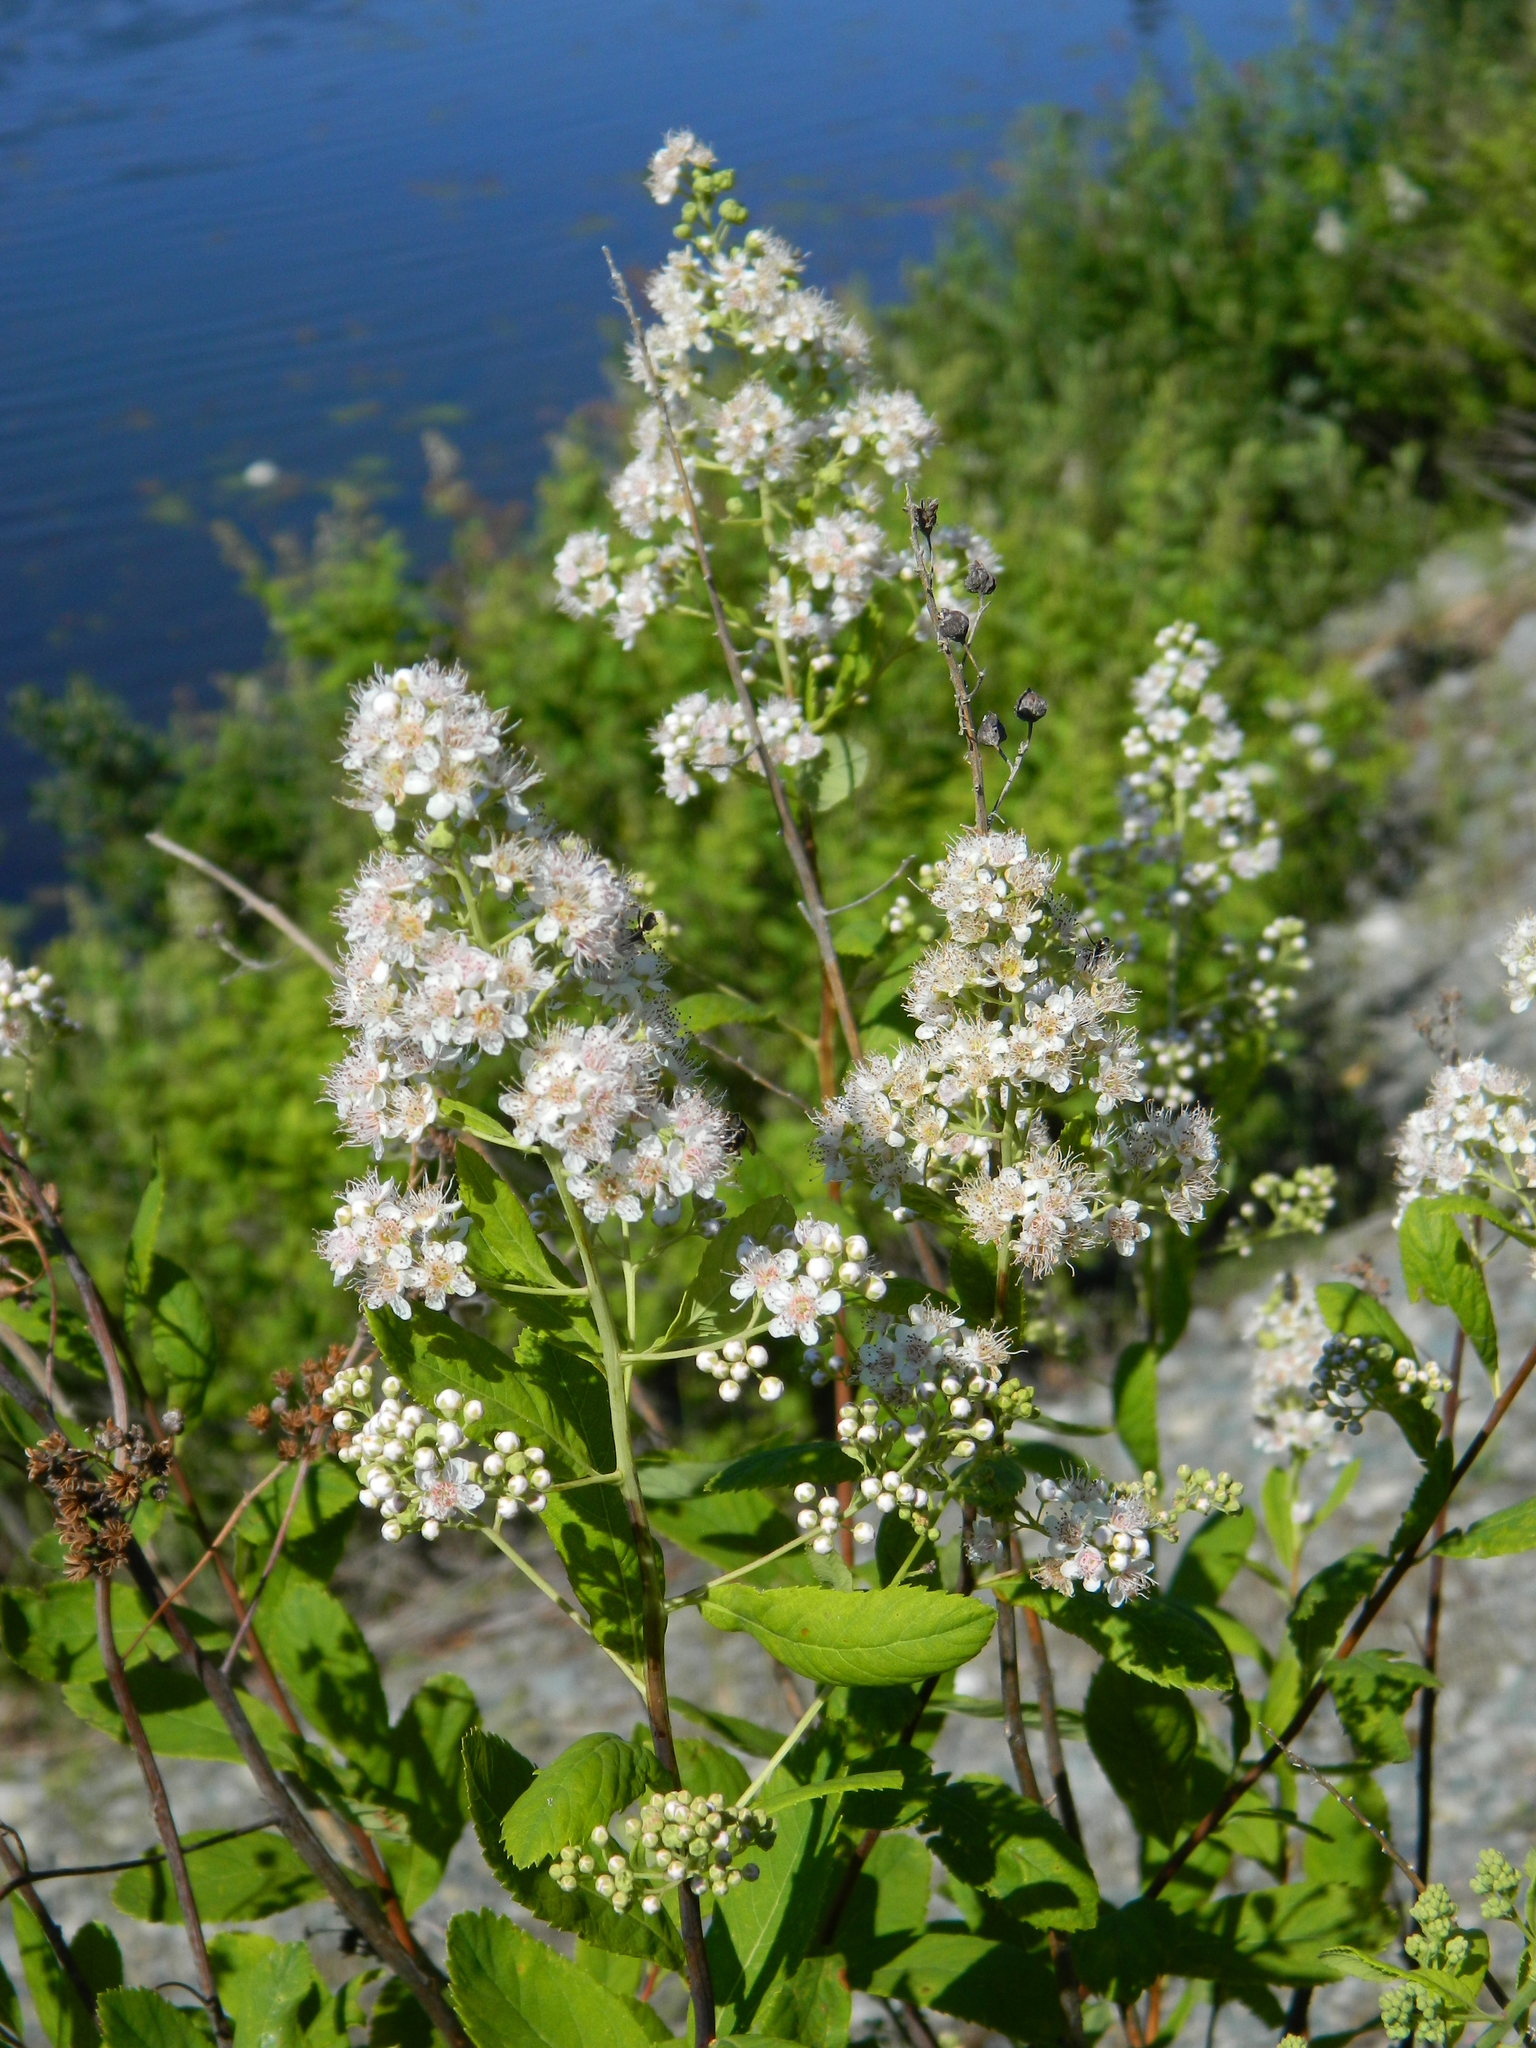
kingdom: Plantae
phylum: Tracheophyta
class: Magnoliopsida
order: Rosales
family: Rosaceae
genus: Spiraea
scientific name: Spiraea alba
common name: Pale bridewort
